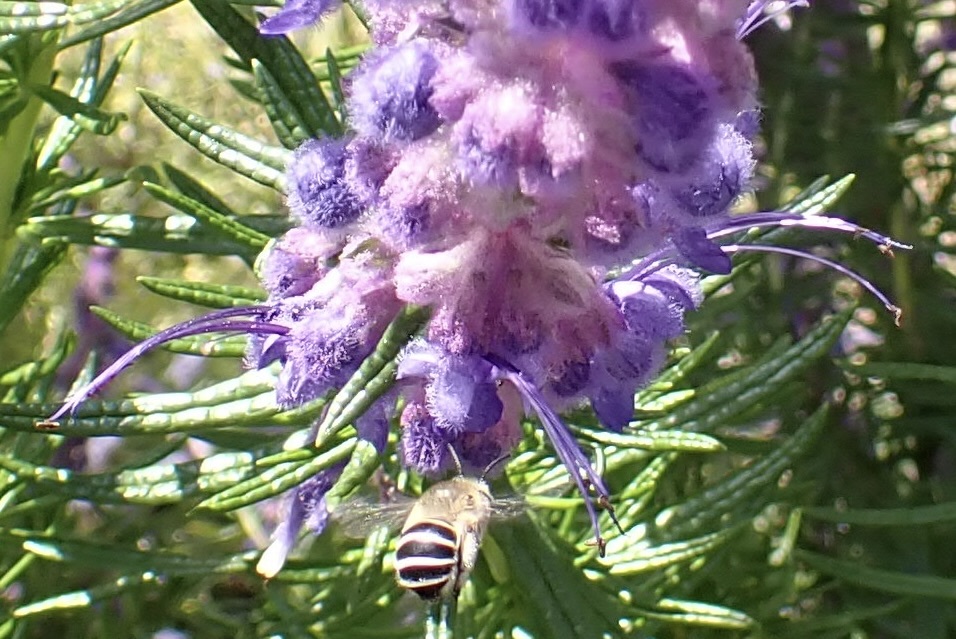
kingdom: Animalia
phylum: Arthropoda
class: Insecta
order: Hymenoptera
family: Apidae
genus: Anthophora
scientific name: Anthophora californica
